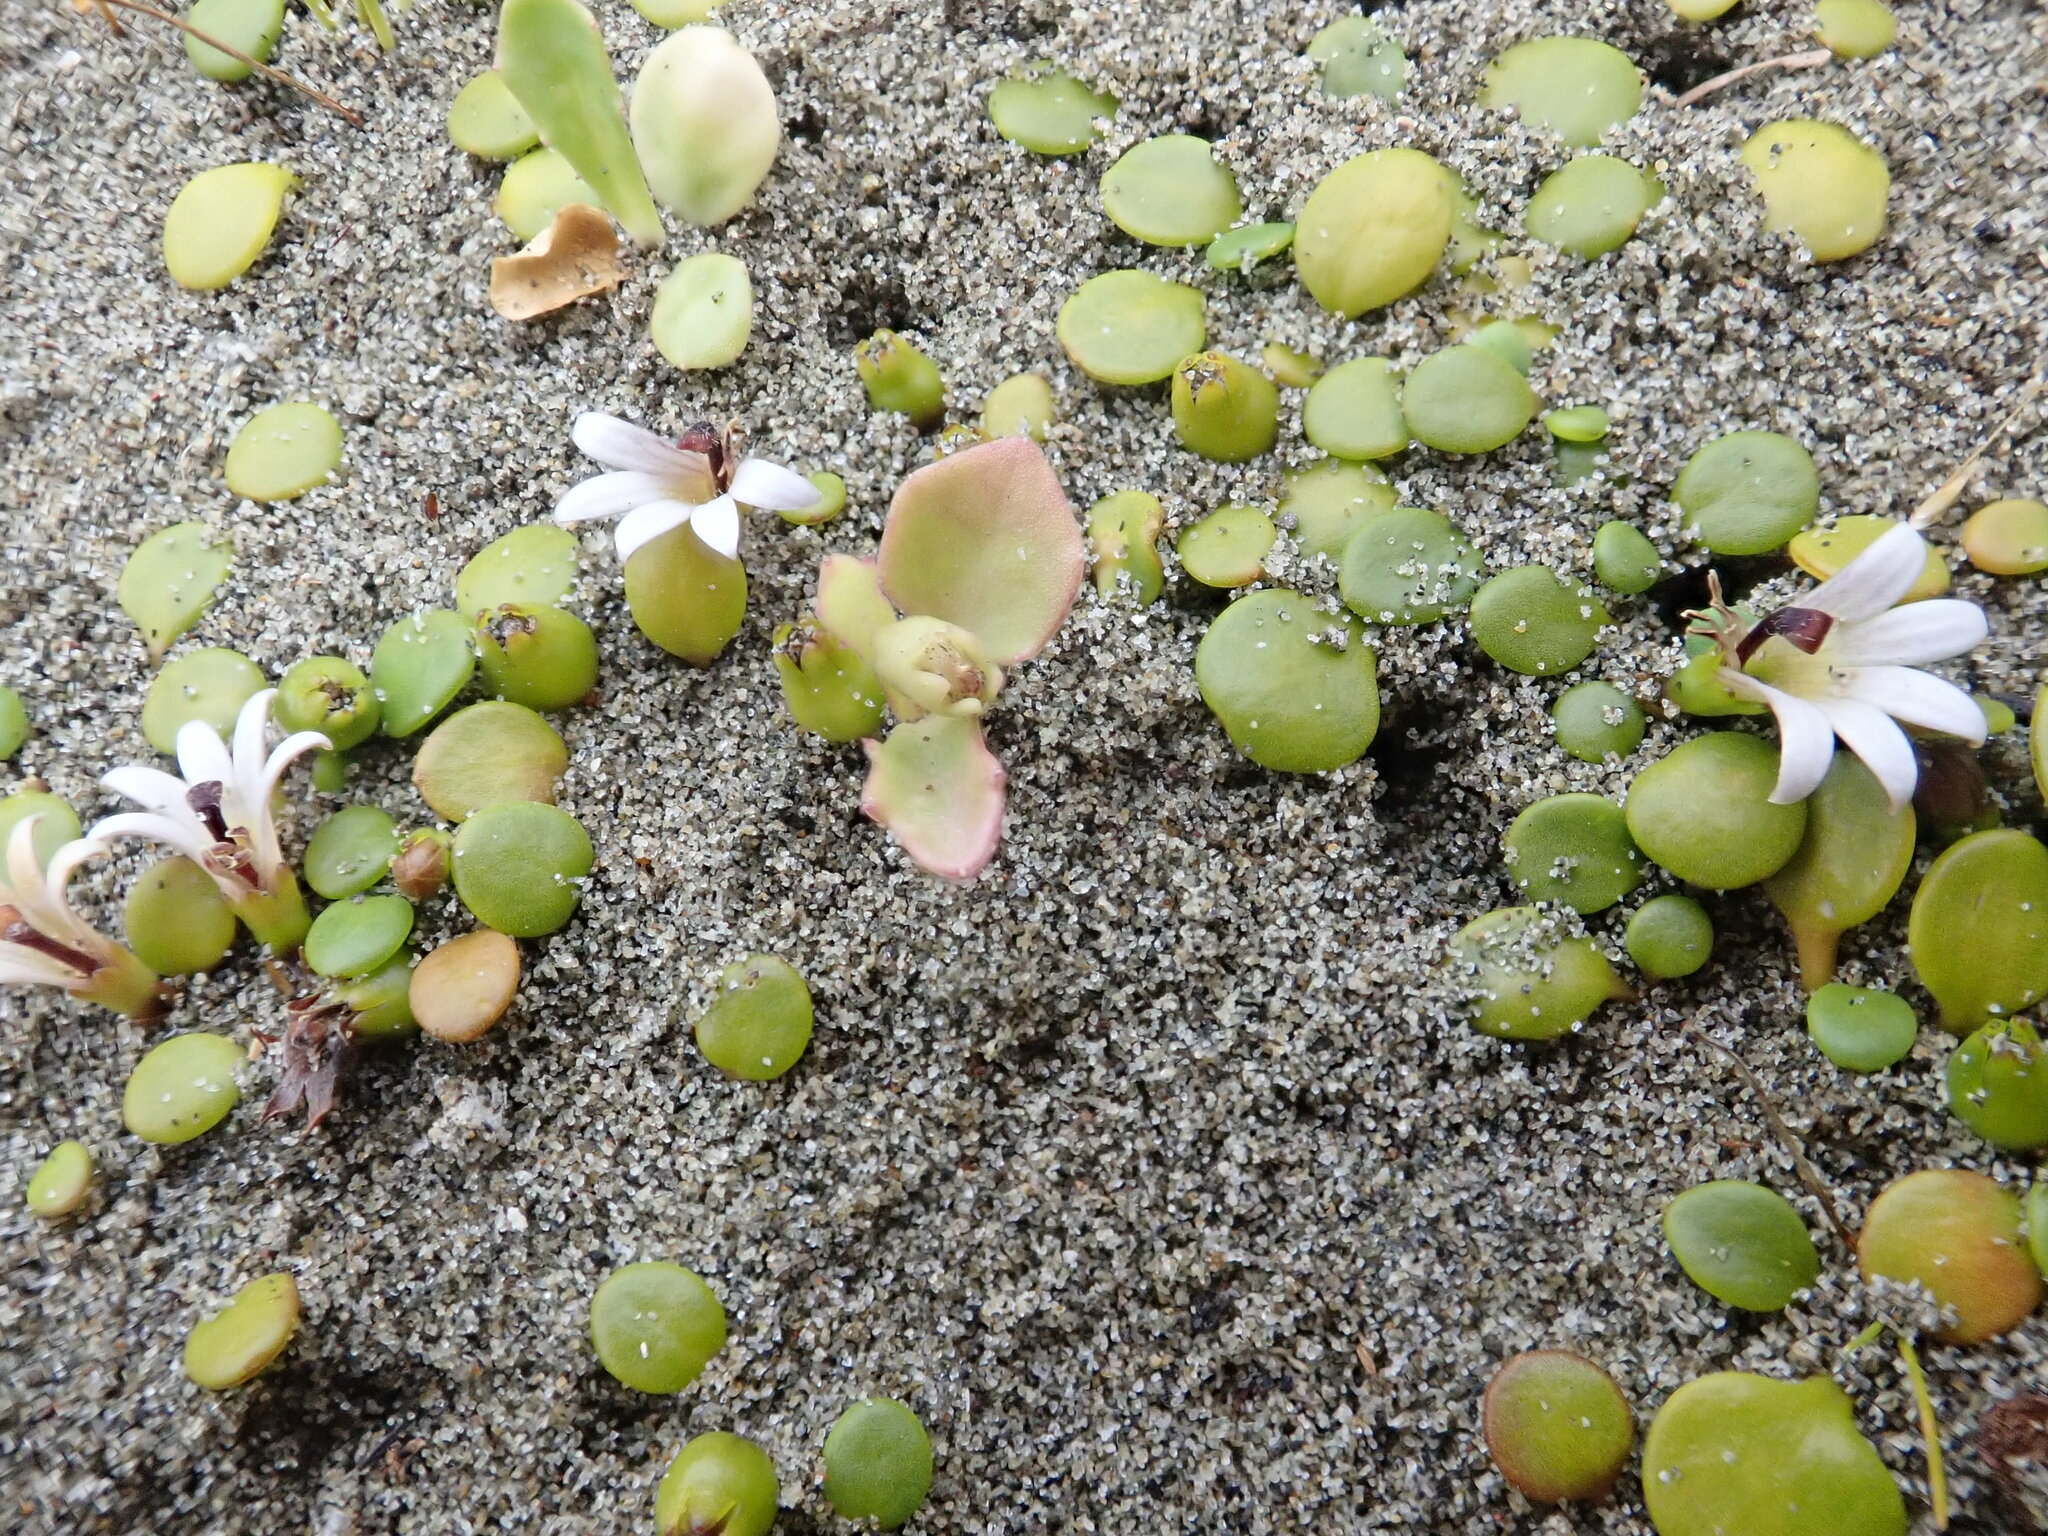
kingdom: Plantae
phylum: Tracheophyta
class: Magnoliopsida
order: Asterales
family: Goodeniaceae
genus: Goodenia
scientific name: Goodenia heenanii
